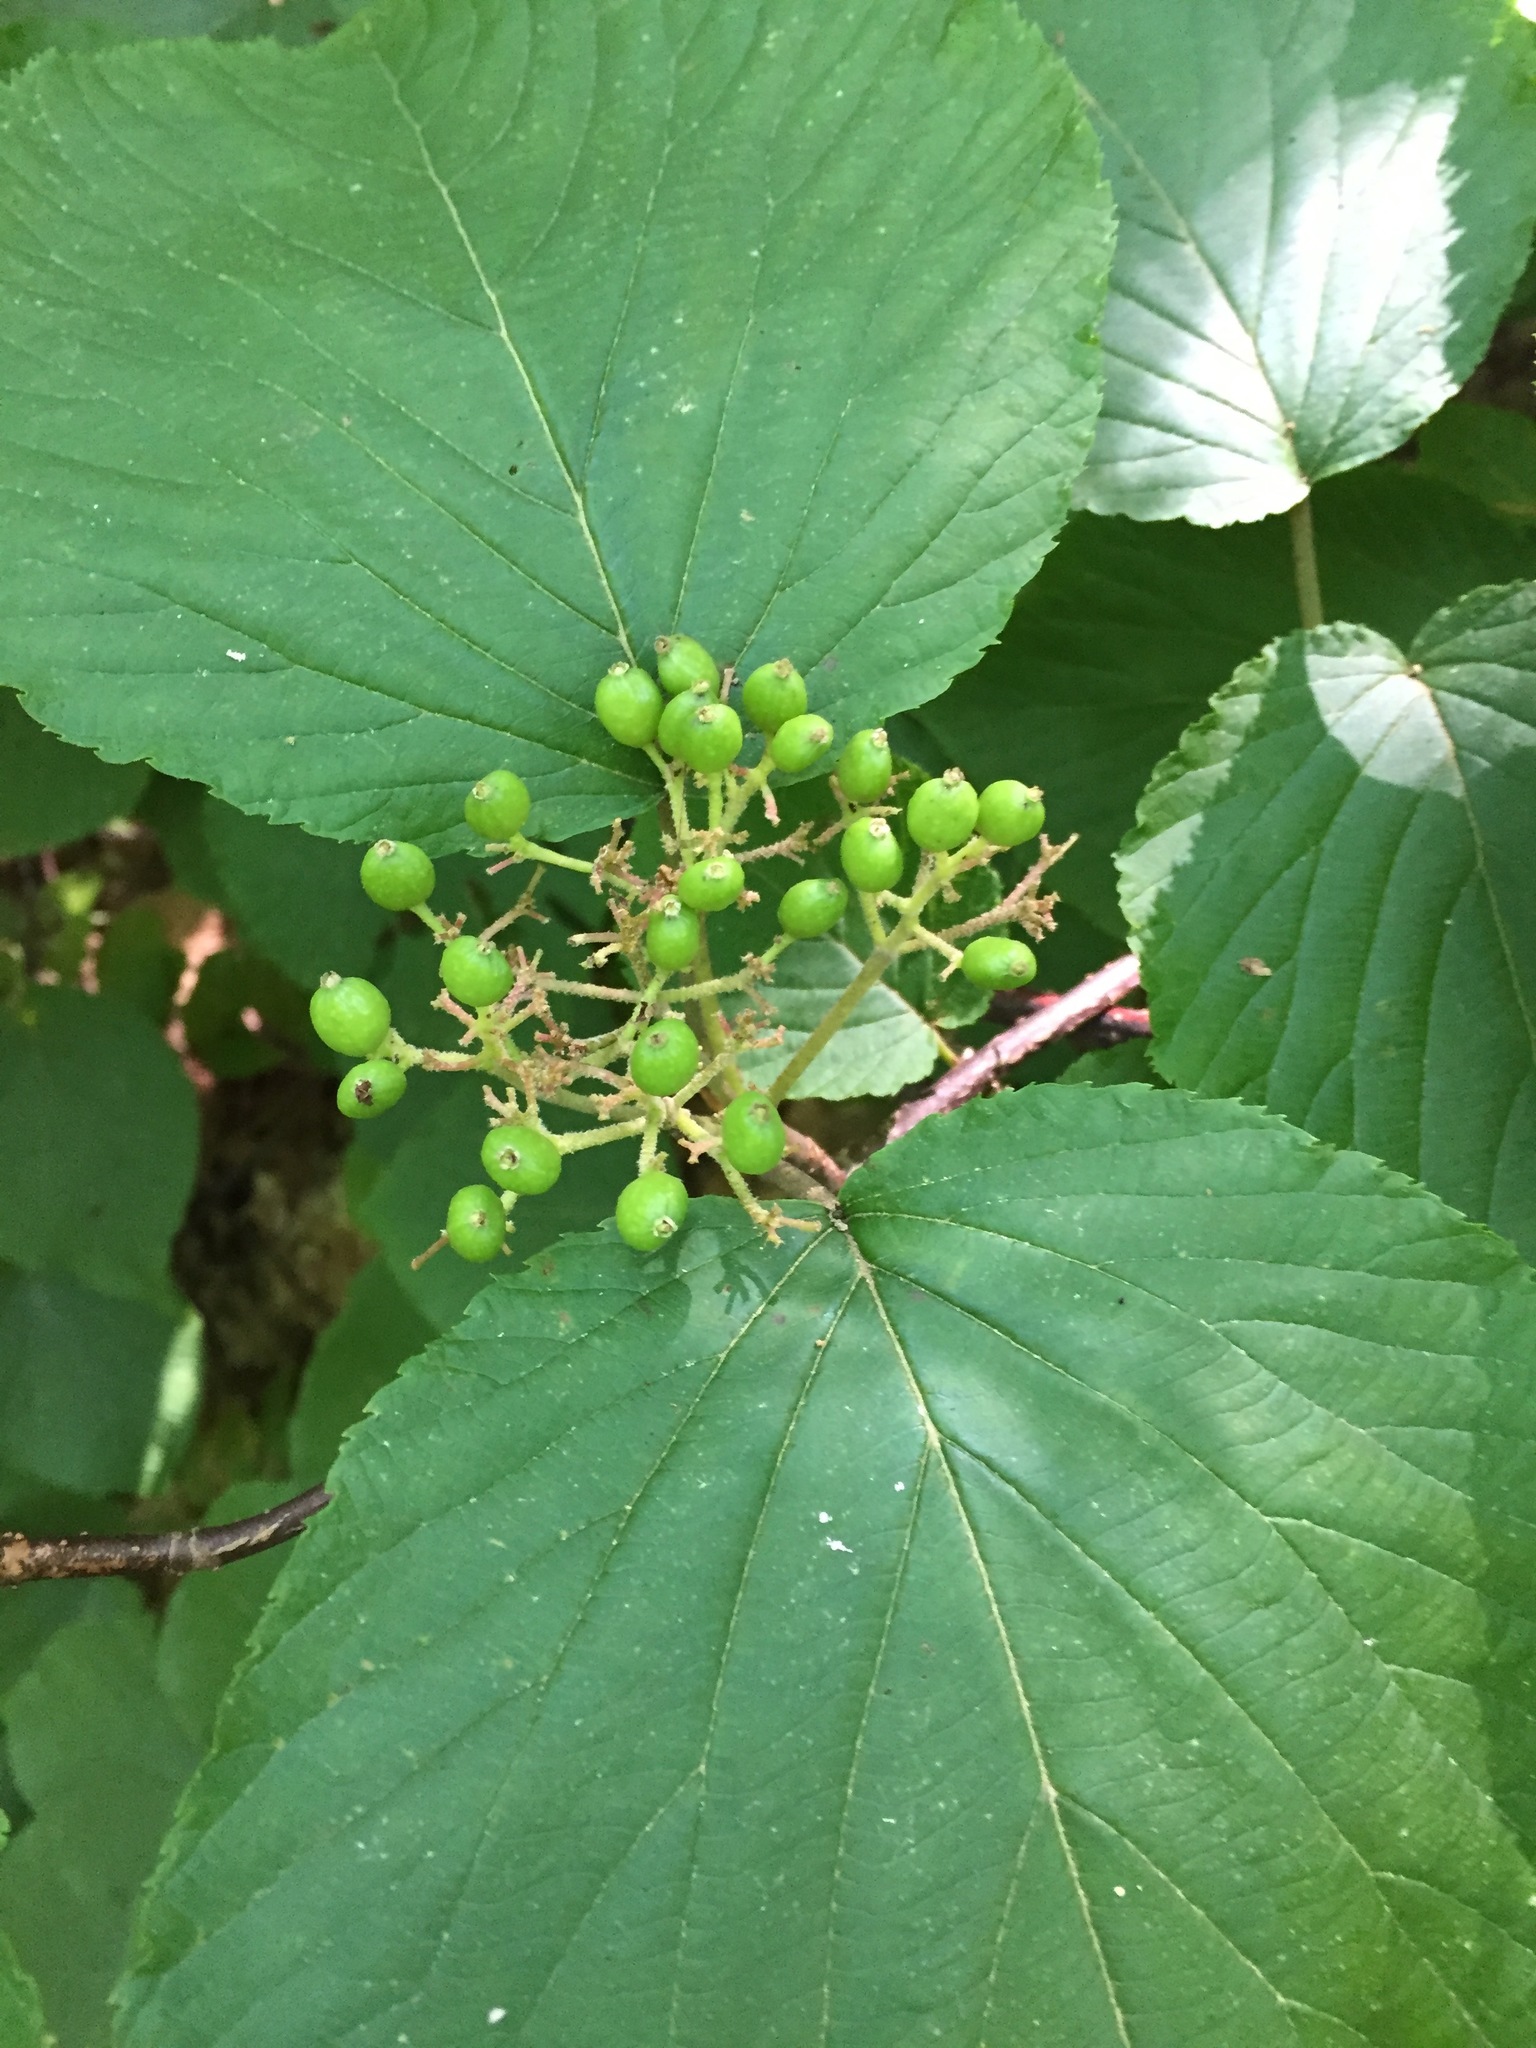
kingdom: Plantae
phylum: Tracheophyta
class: Magnoliopsida
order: Dipsacales
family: Viburnaceae
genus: Viburnum
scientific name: Viburnum lantanoides
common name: Hobblebush
